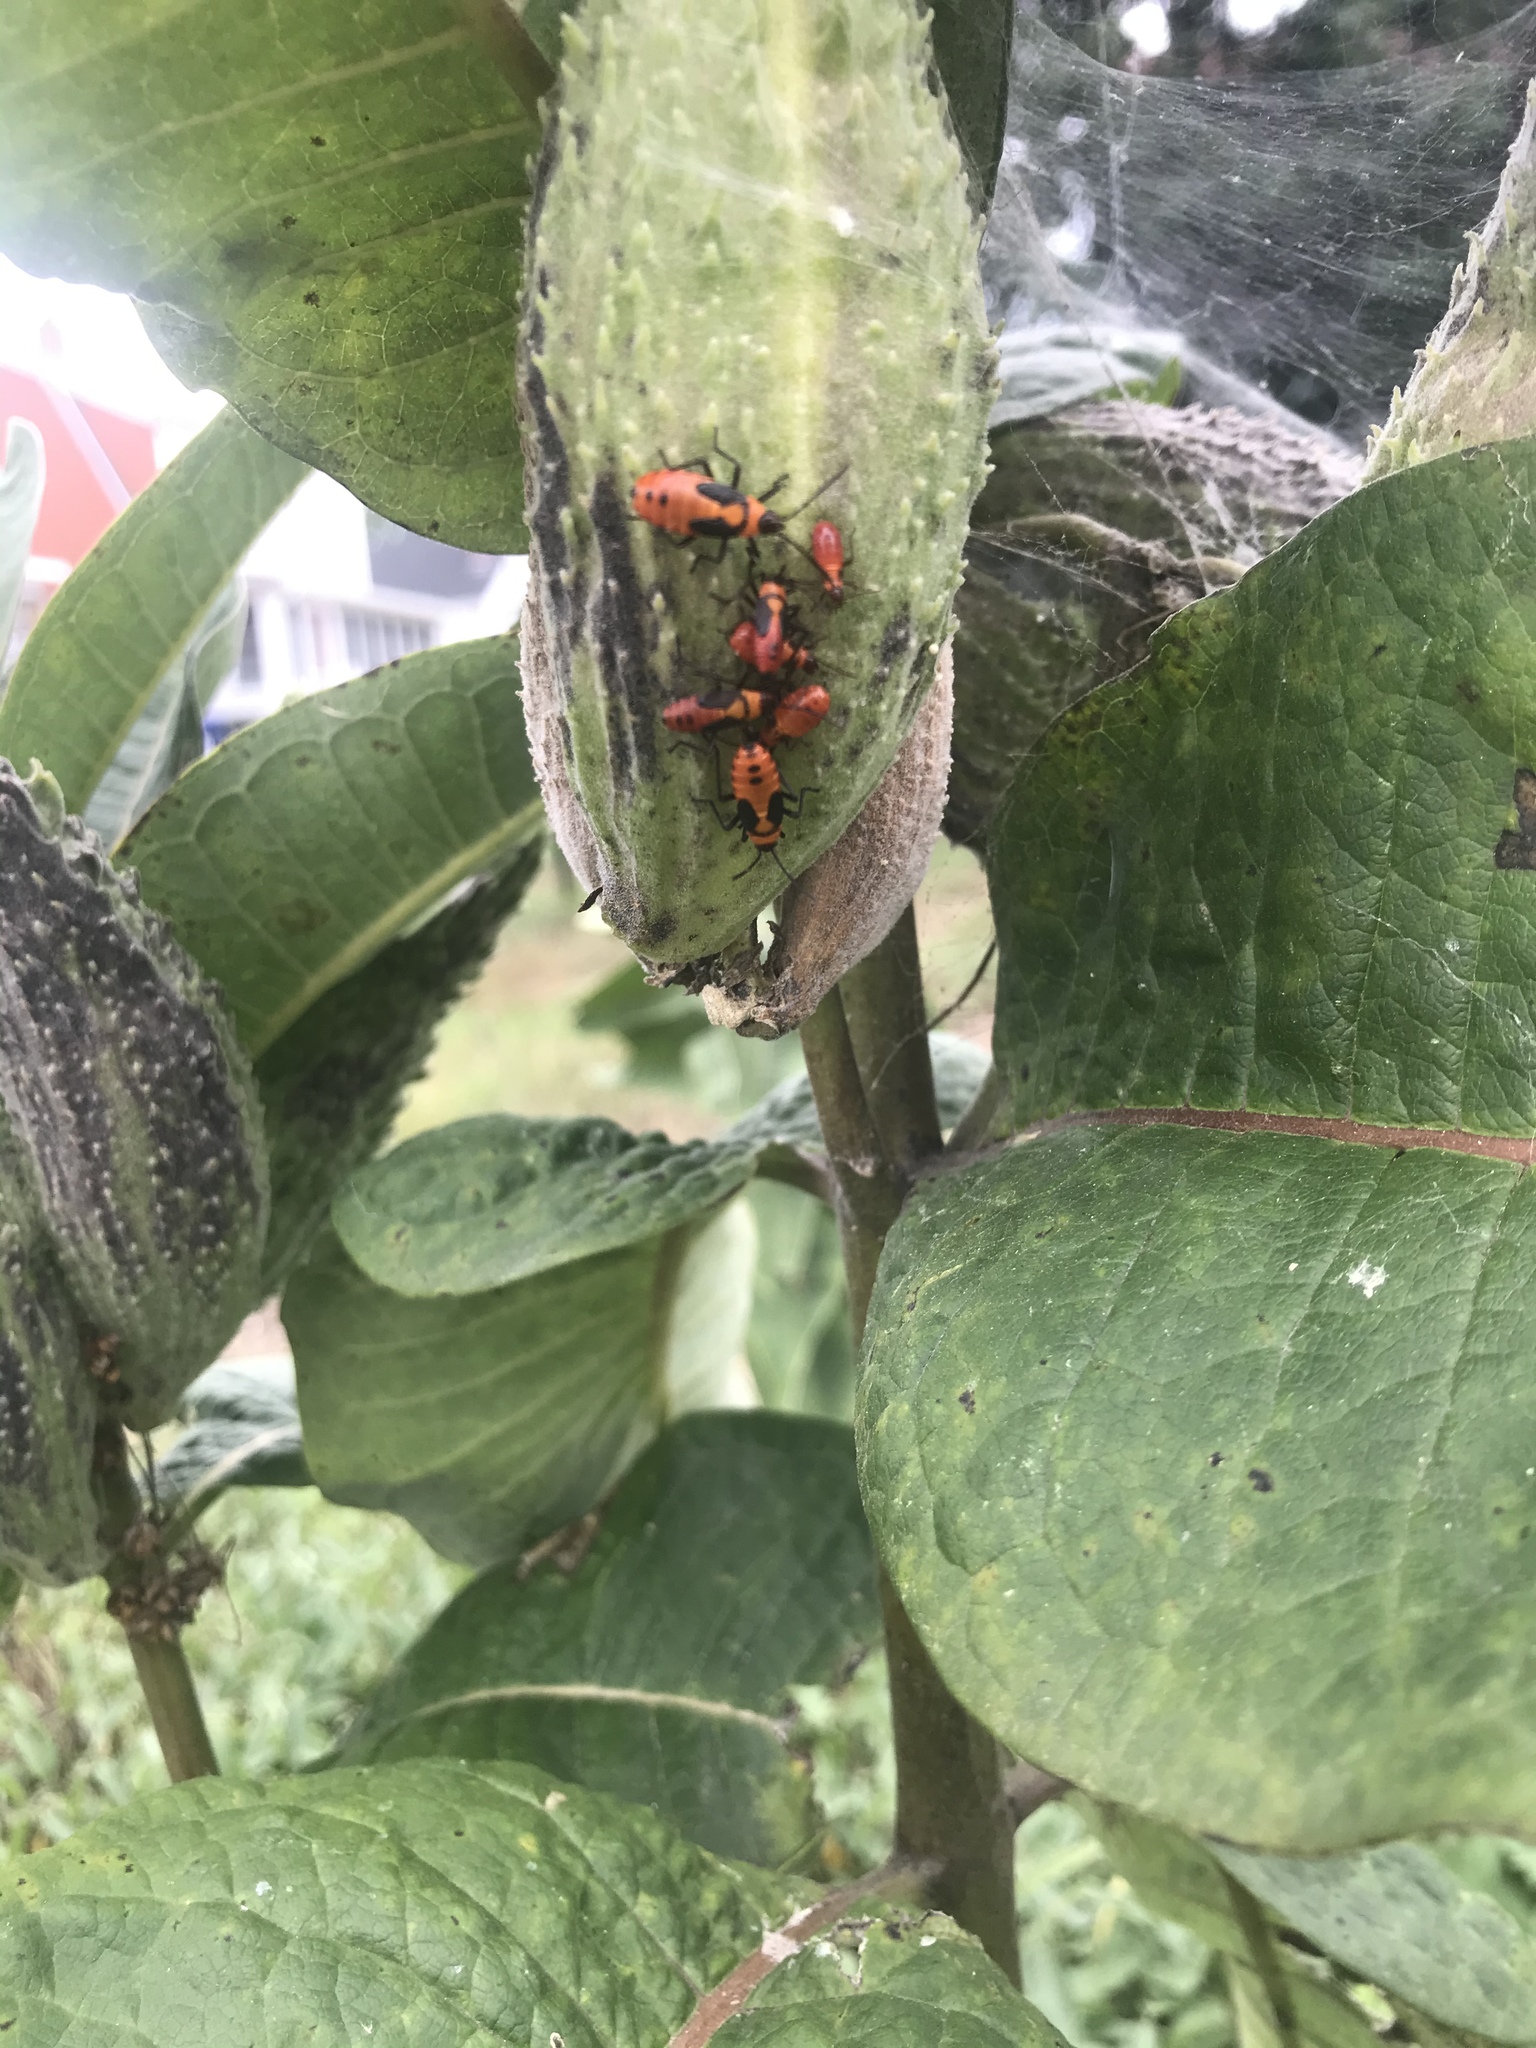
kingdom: Animalia
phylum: Arthropoda
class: Insecta
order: Hemiptera
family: Lygaeidae
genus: Oncopeltus
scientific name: Oncopeltus fasciatus
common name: Large milkweed bug
